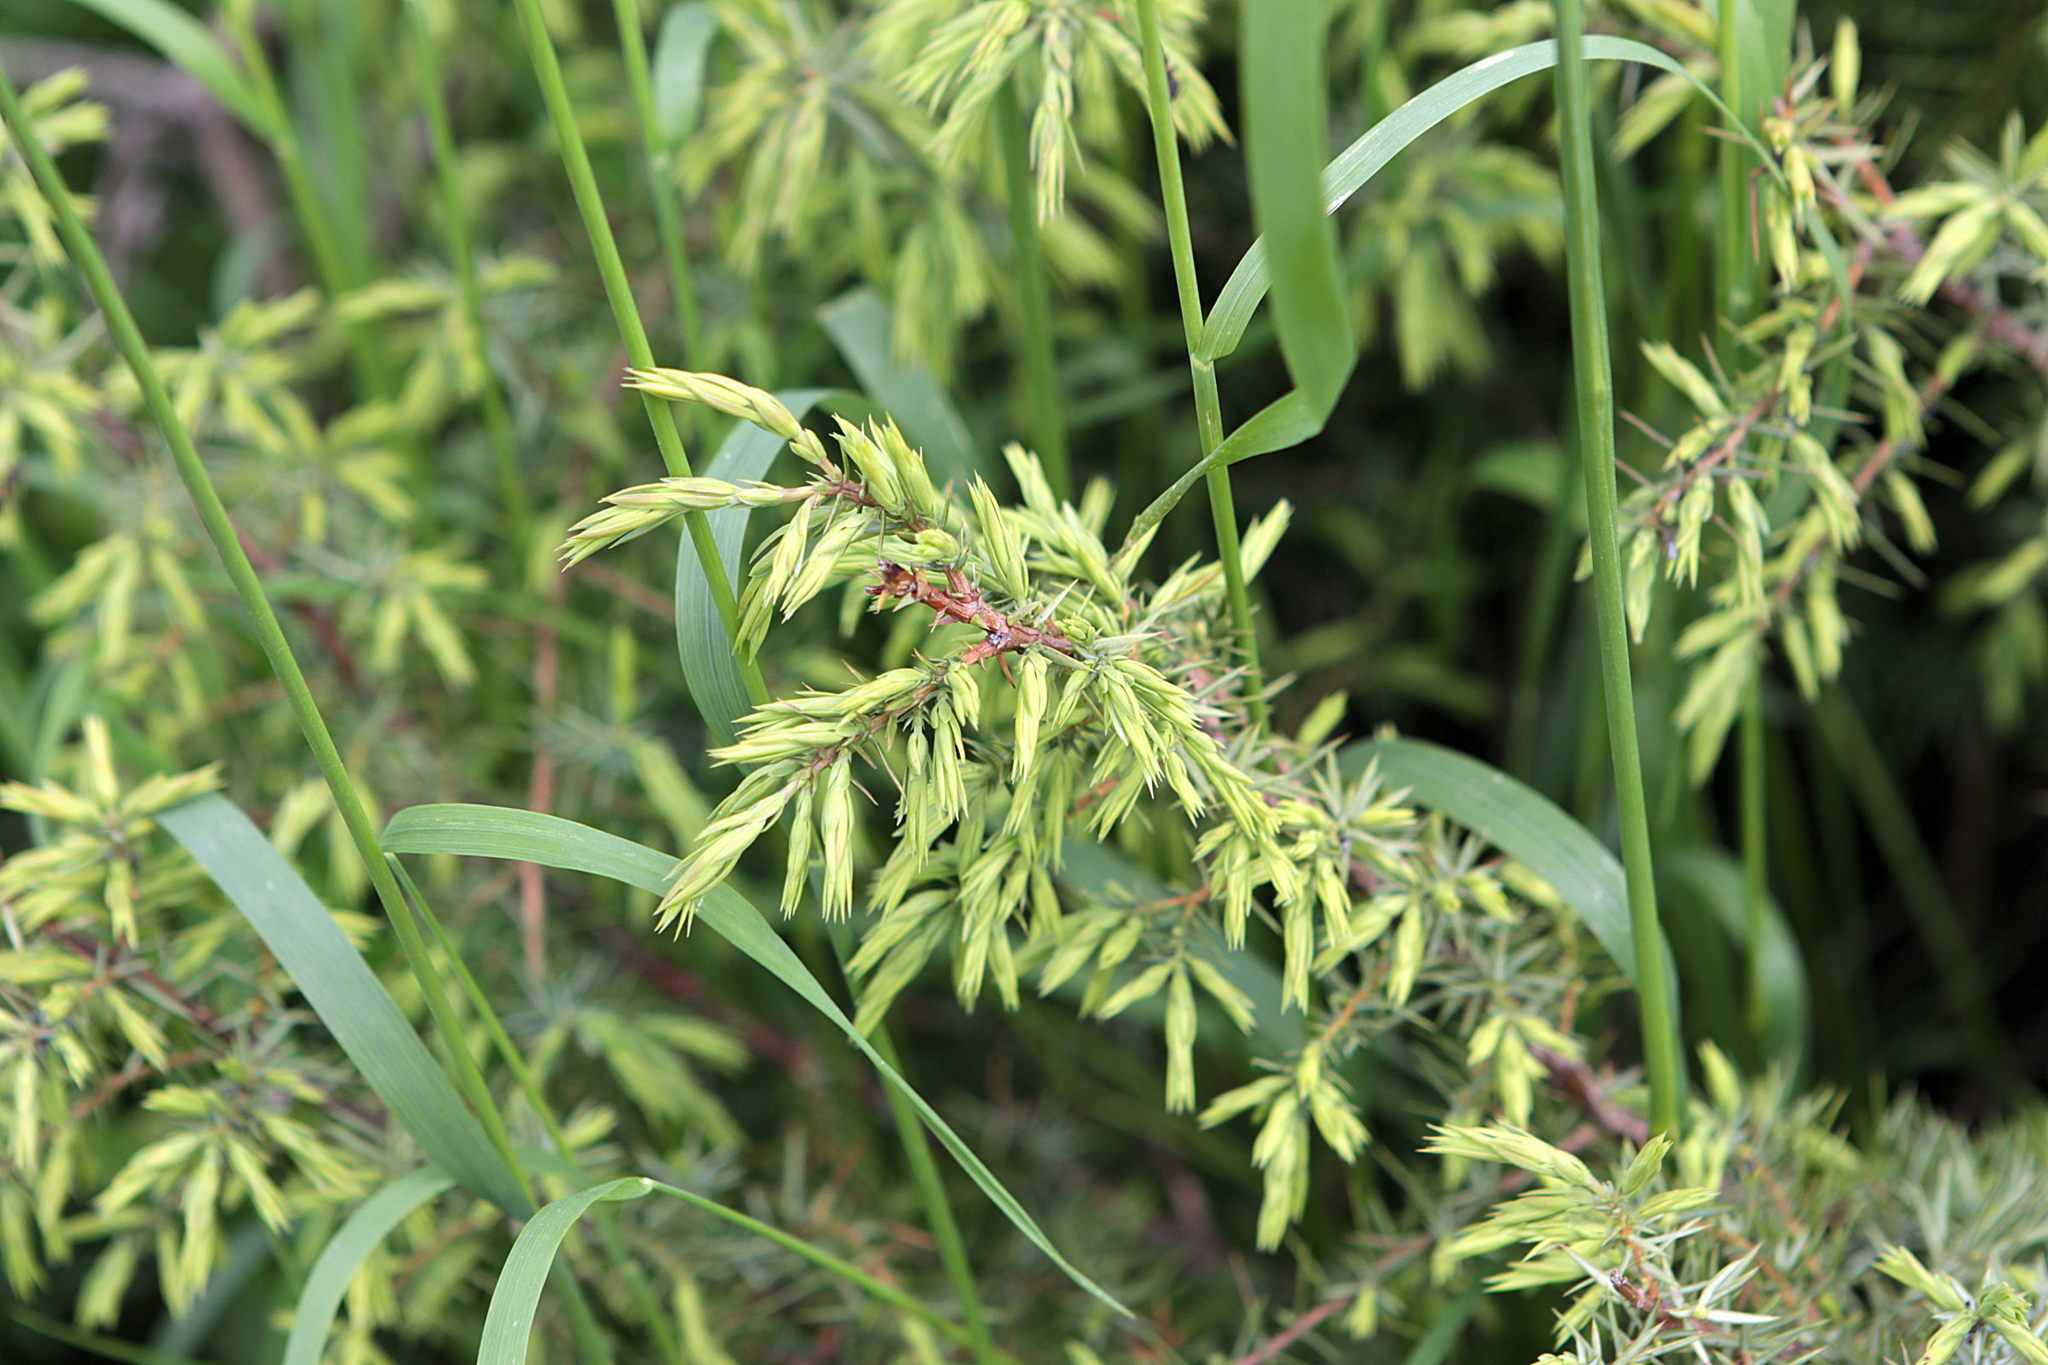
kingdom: Plantae
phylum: Tracheophyta
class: Pinopsida
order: Pinales
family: Cupressaceae
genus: Juniperus
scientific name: Juniperus communis
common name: Common juniper
